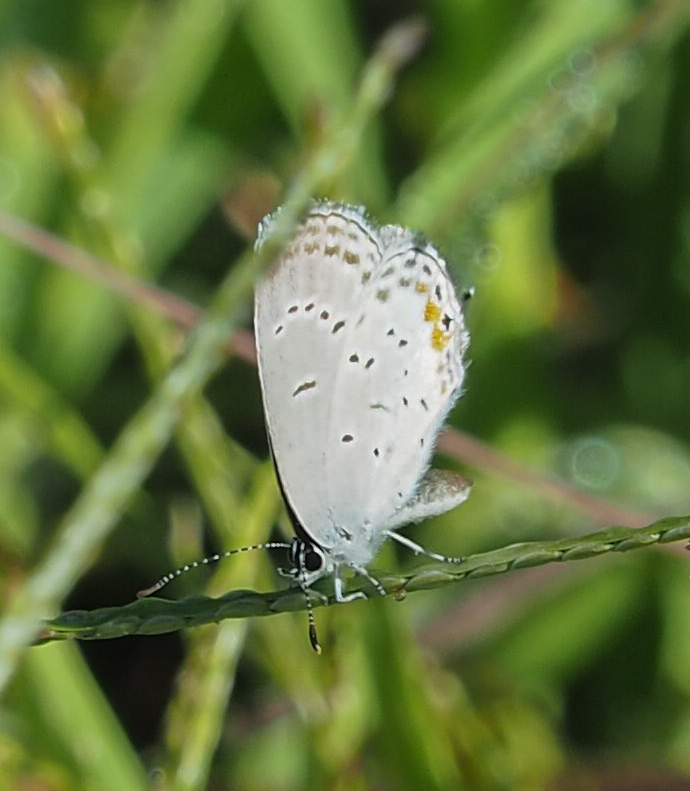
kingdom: Animalia
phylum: Arthropoda
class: Insecta
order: Lepidoptera
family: Lycaenidae
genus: Elkalyce
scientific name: Elkalyce comyntas
